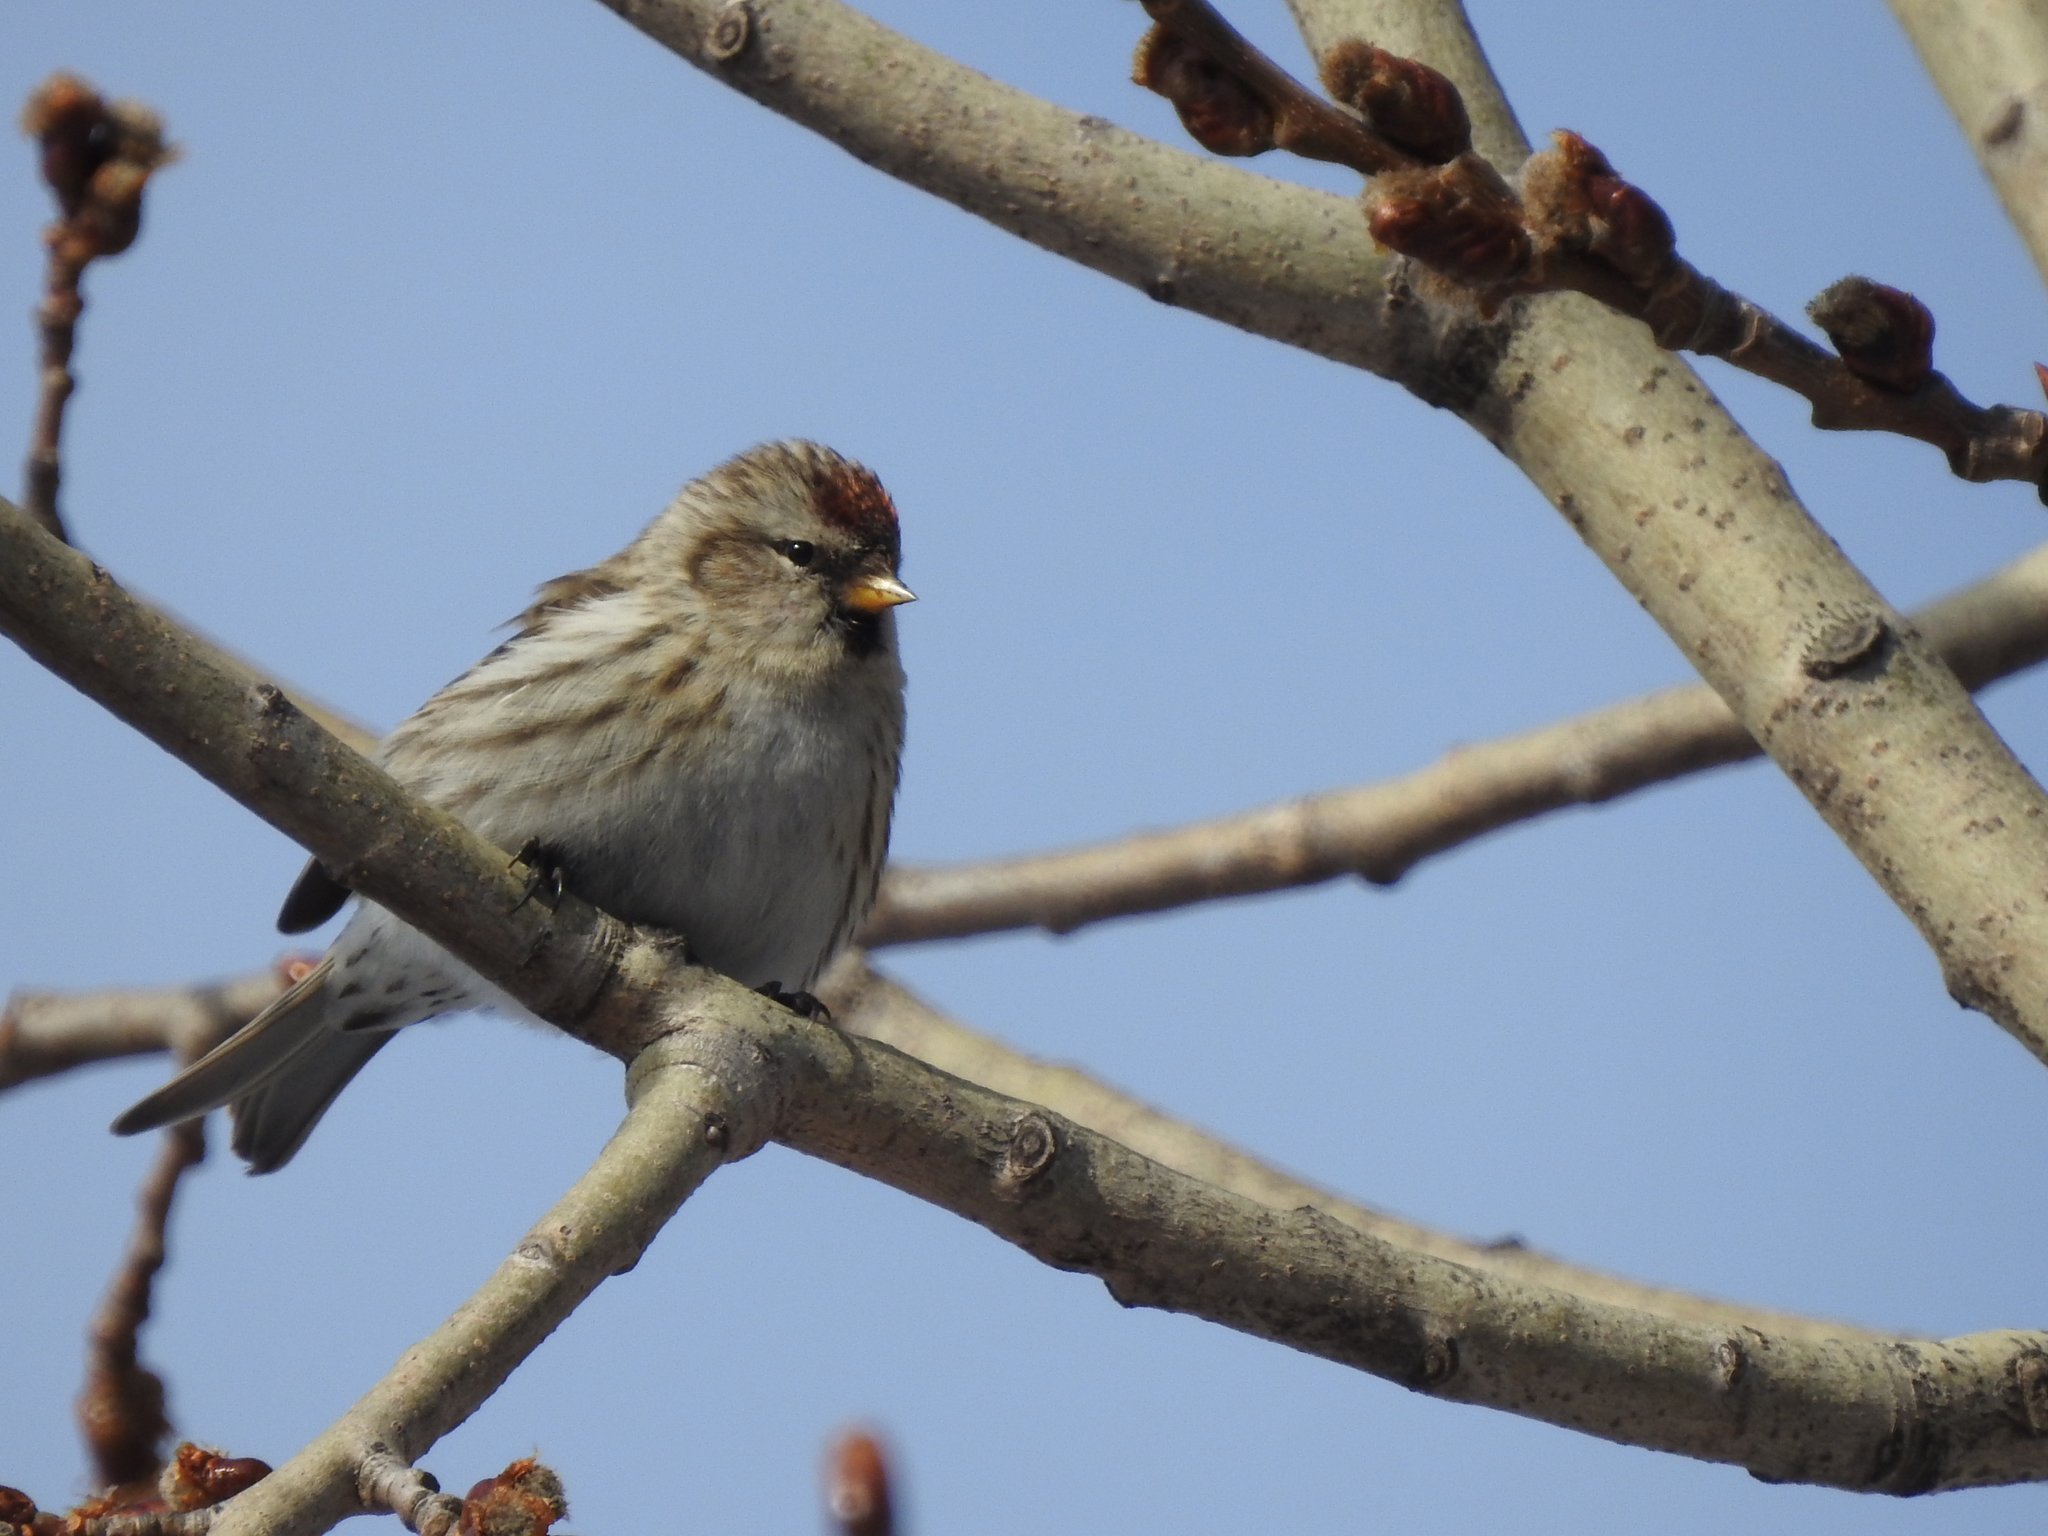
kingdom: Animalia
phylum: Chordata
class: Aves
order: Passeriformes
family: Fringillidae
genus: Acanthis
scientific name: Acanthis flammea
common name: Common redpoll
